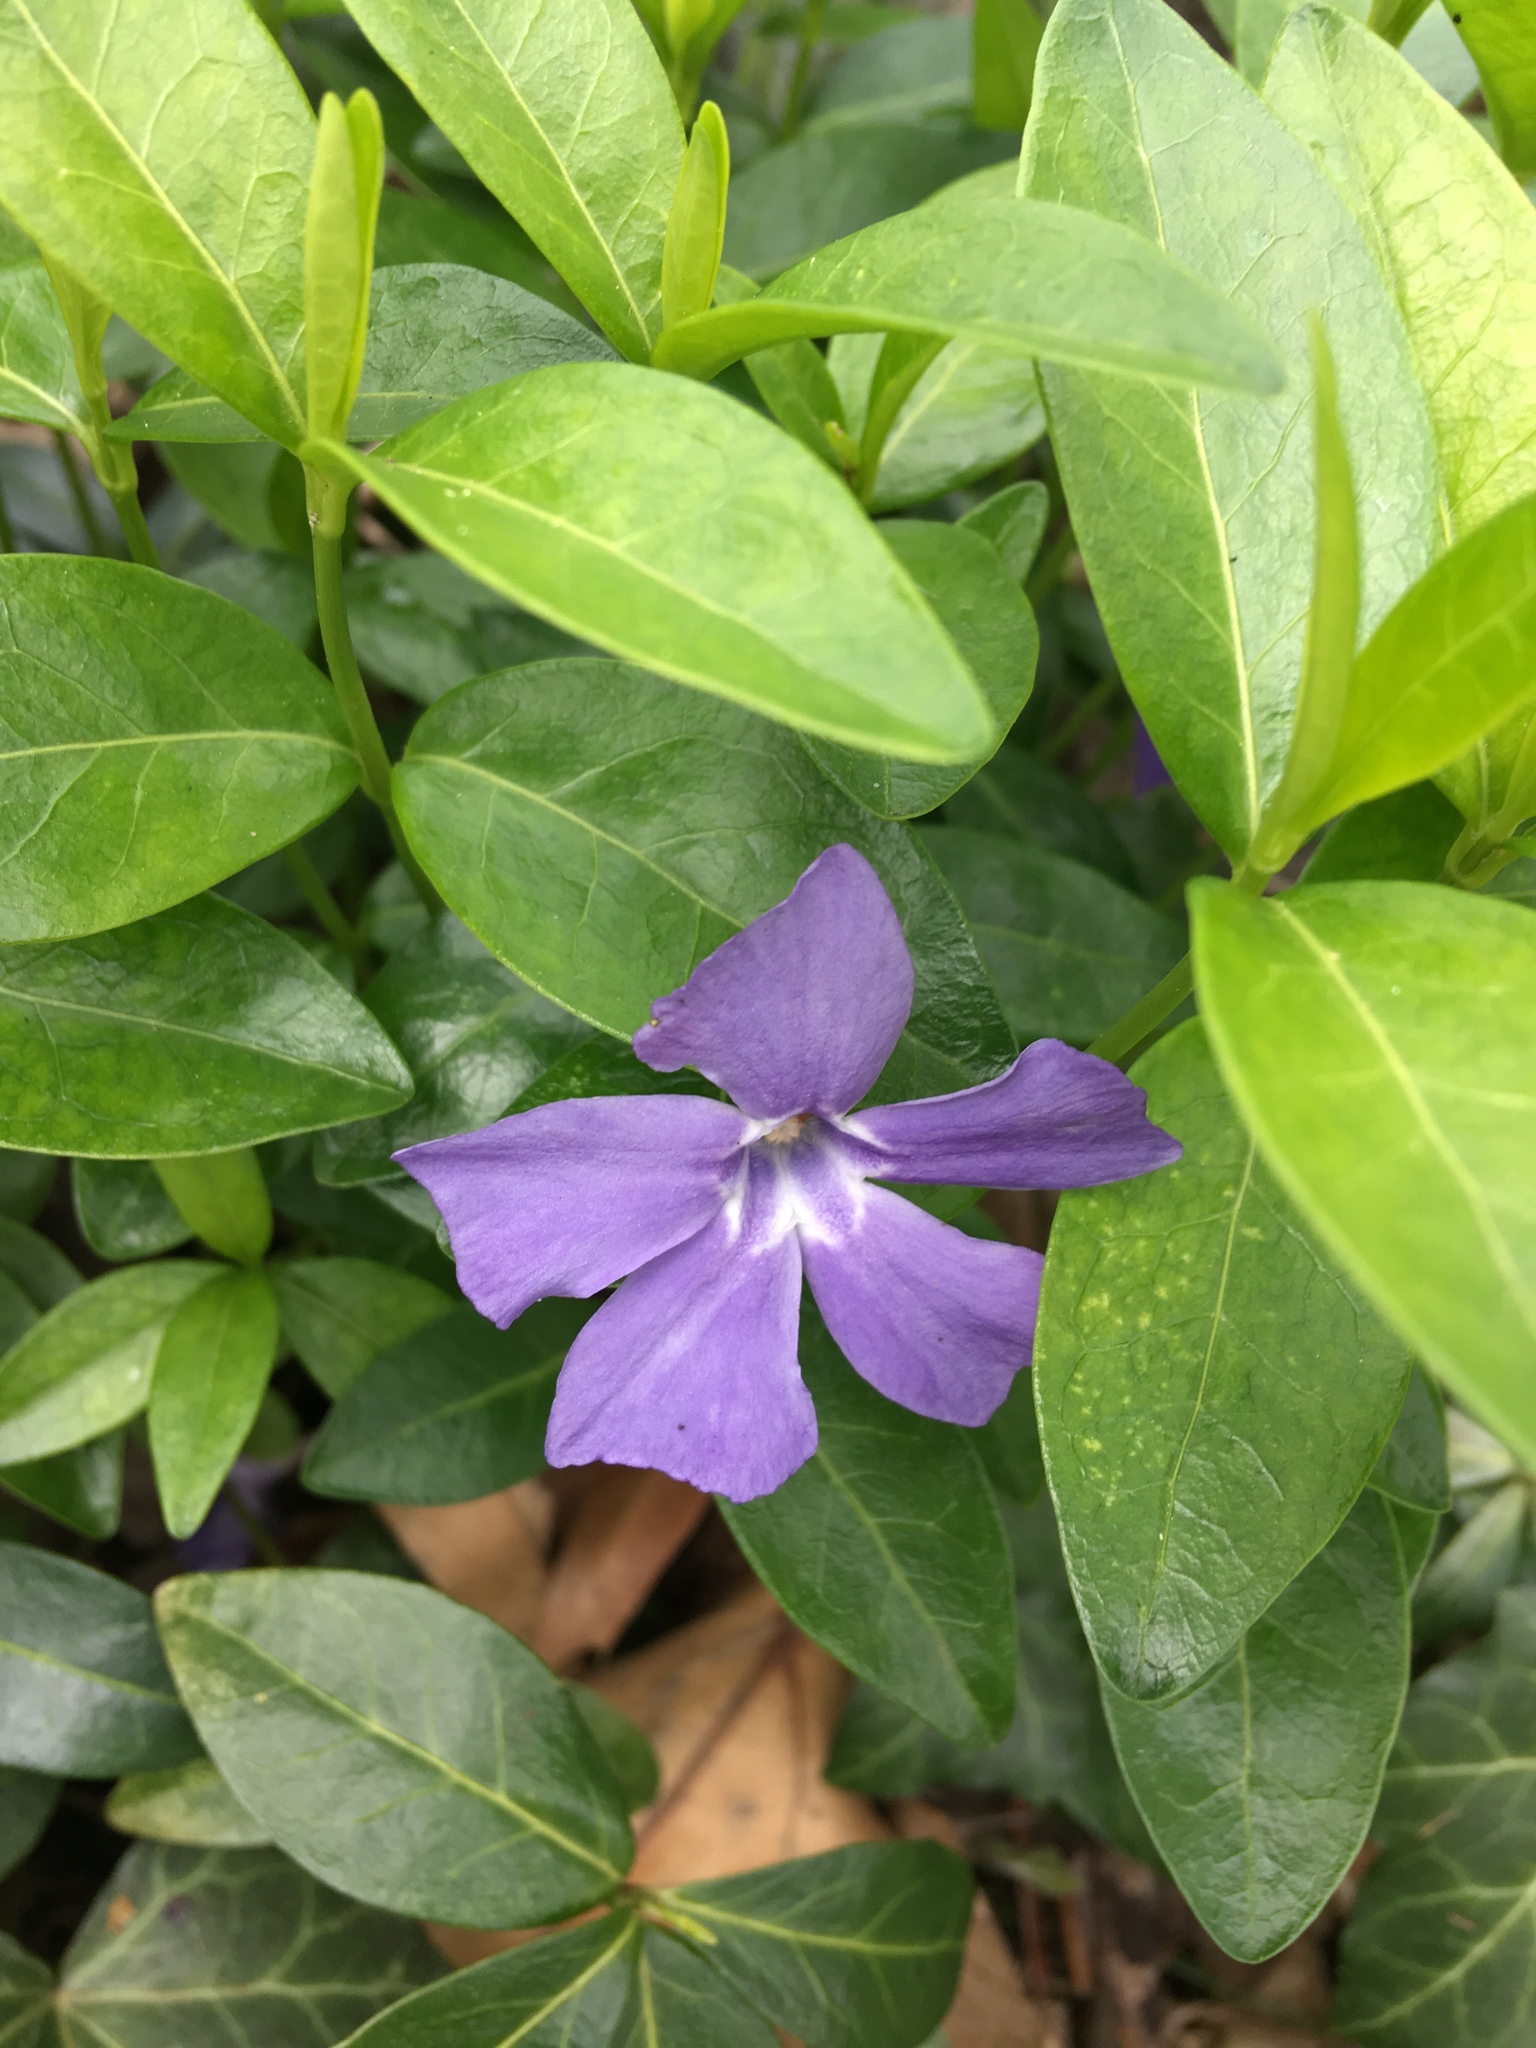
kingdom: Plantae
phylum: Tracheophyta
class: Magnoliopsida
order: Gentianales
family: Apocynaceae
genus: Vinca
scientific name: Vinca minor
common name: Lesser periwinkle
